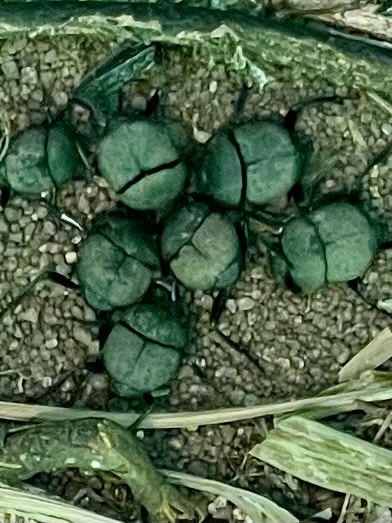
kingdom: Animalia
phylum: Arthropoda
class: Insecta
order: Coleoptera
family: Scarabaeidae
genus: Melanocanthon
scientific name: Melanocanthon nigricornis
